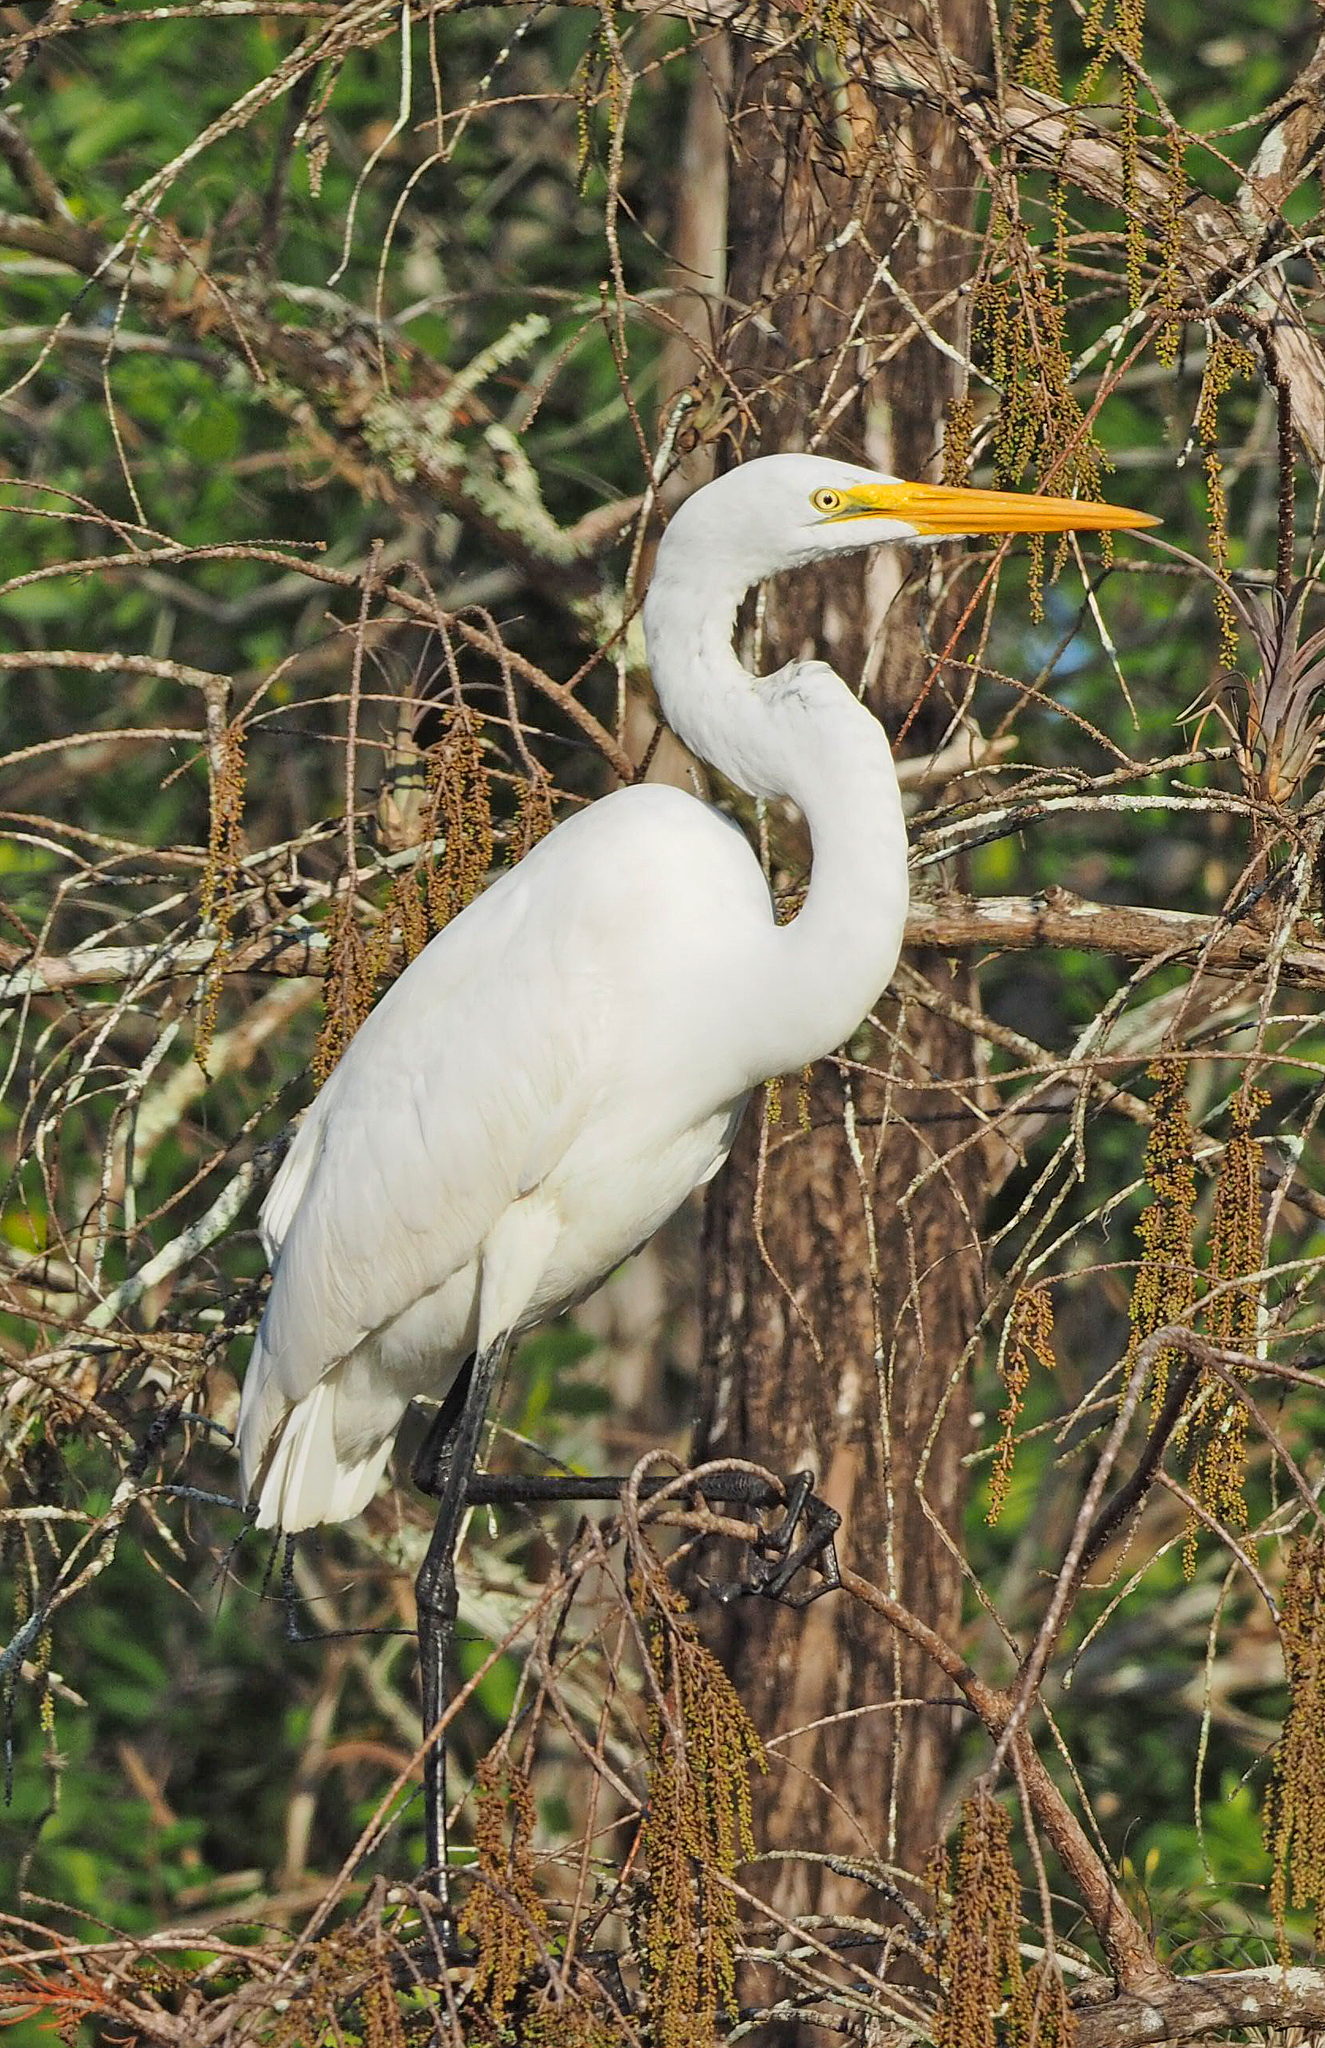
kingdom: Animalia
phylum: Chordata
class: Aves
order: Pelecaniformes
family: Ardeidae
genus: Ardea
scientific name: Ardea alba
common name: Great egret
